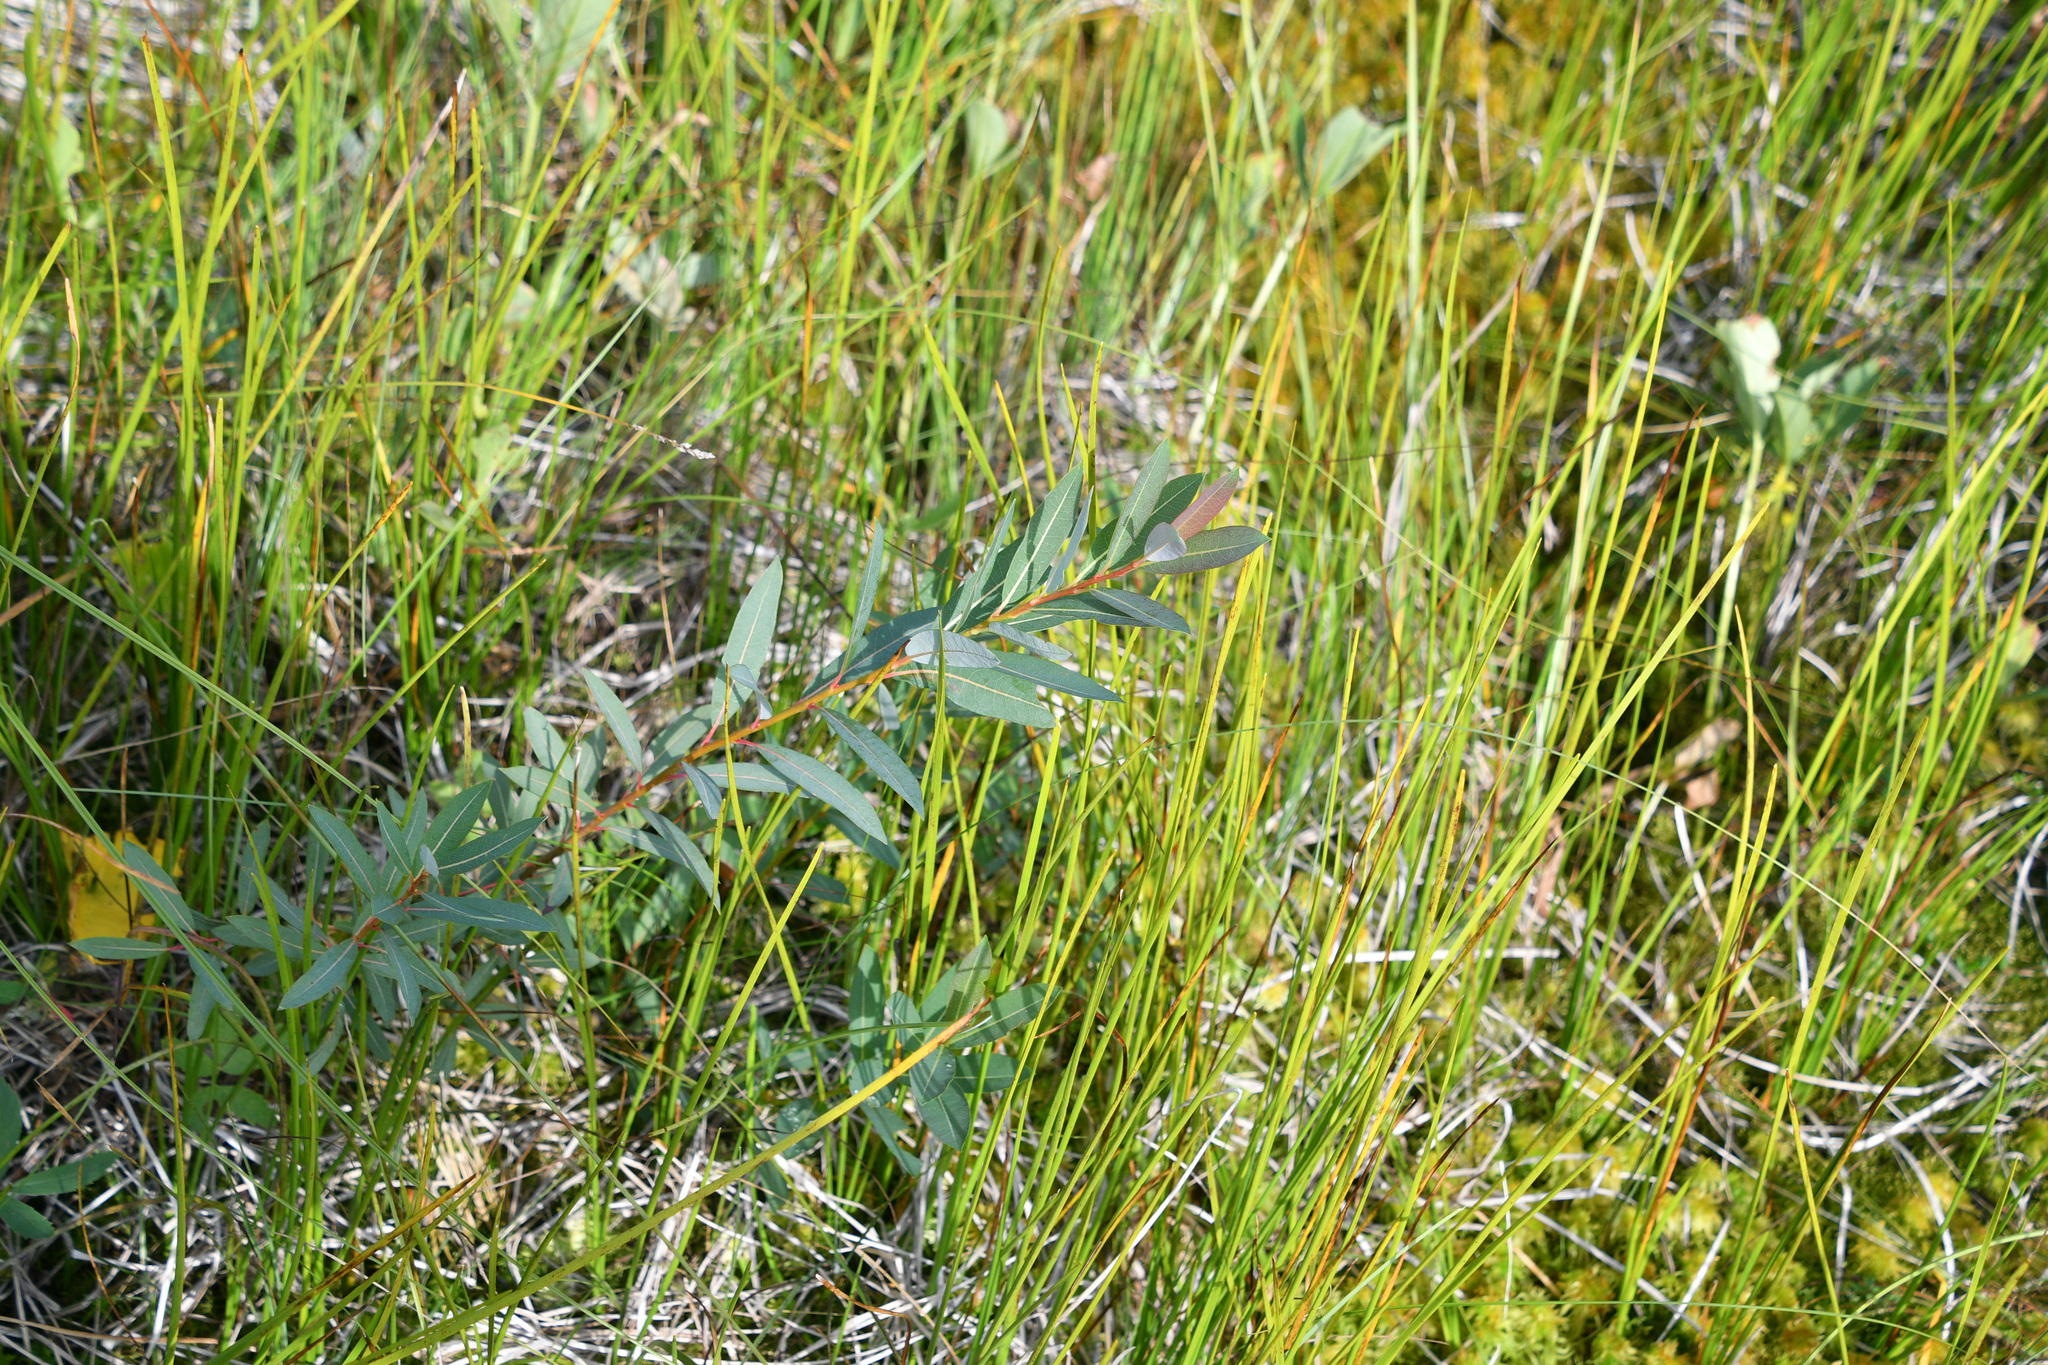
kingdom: Plantae
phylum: Tracheophyta
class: Magnoliopsida
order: Malpighiales
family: Salicaceae
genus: Salix
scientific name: Salix pedicellaris
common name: Bog willow
